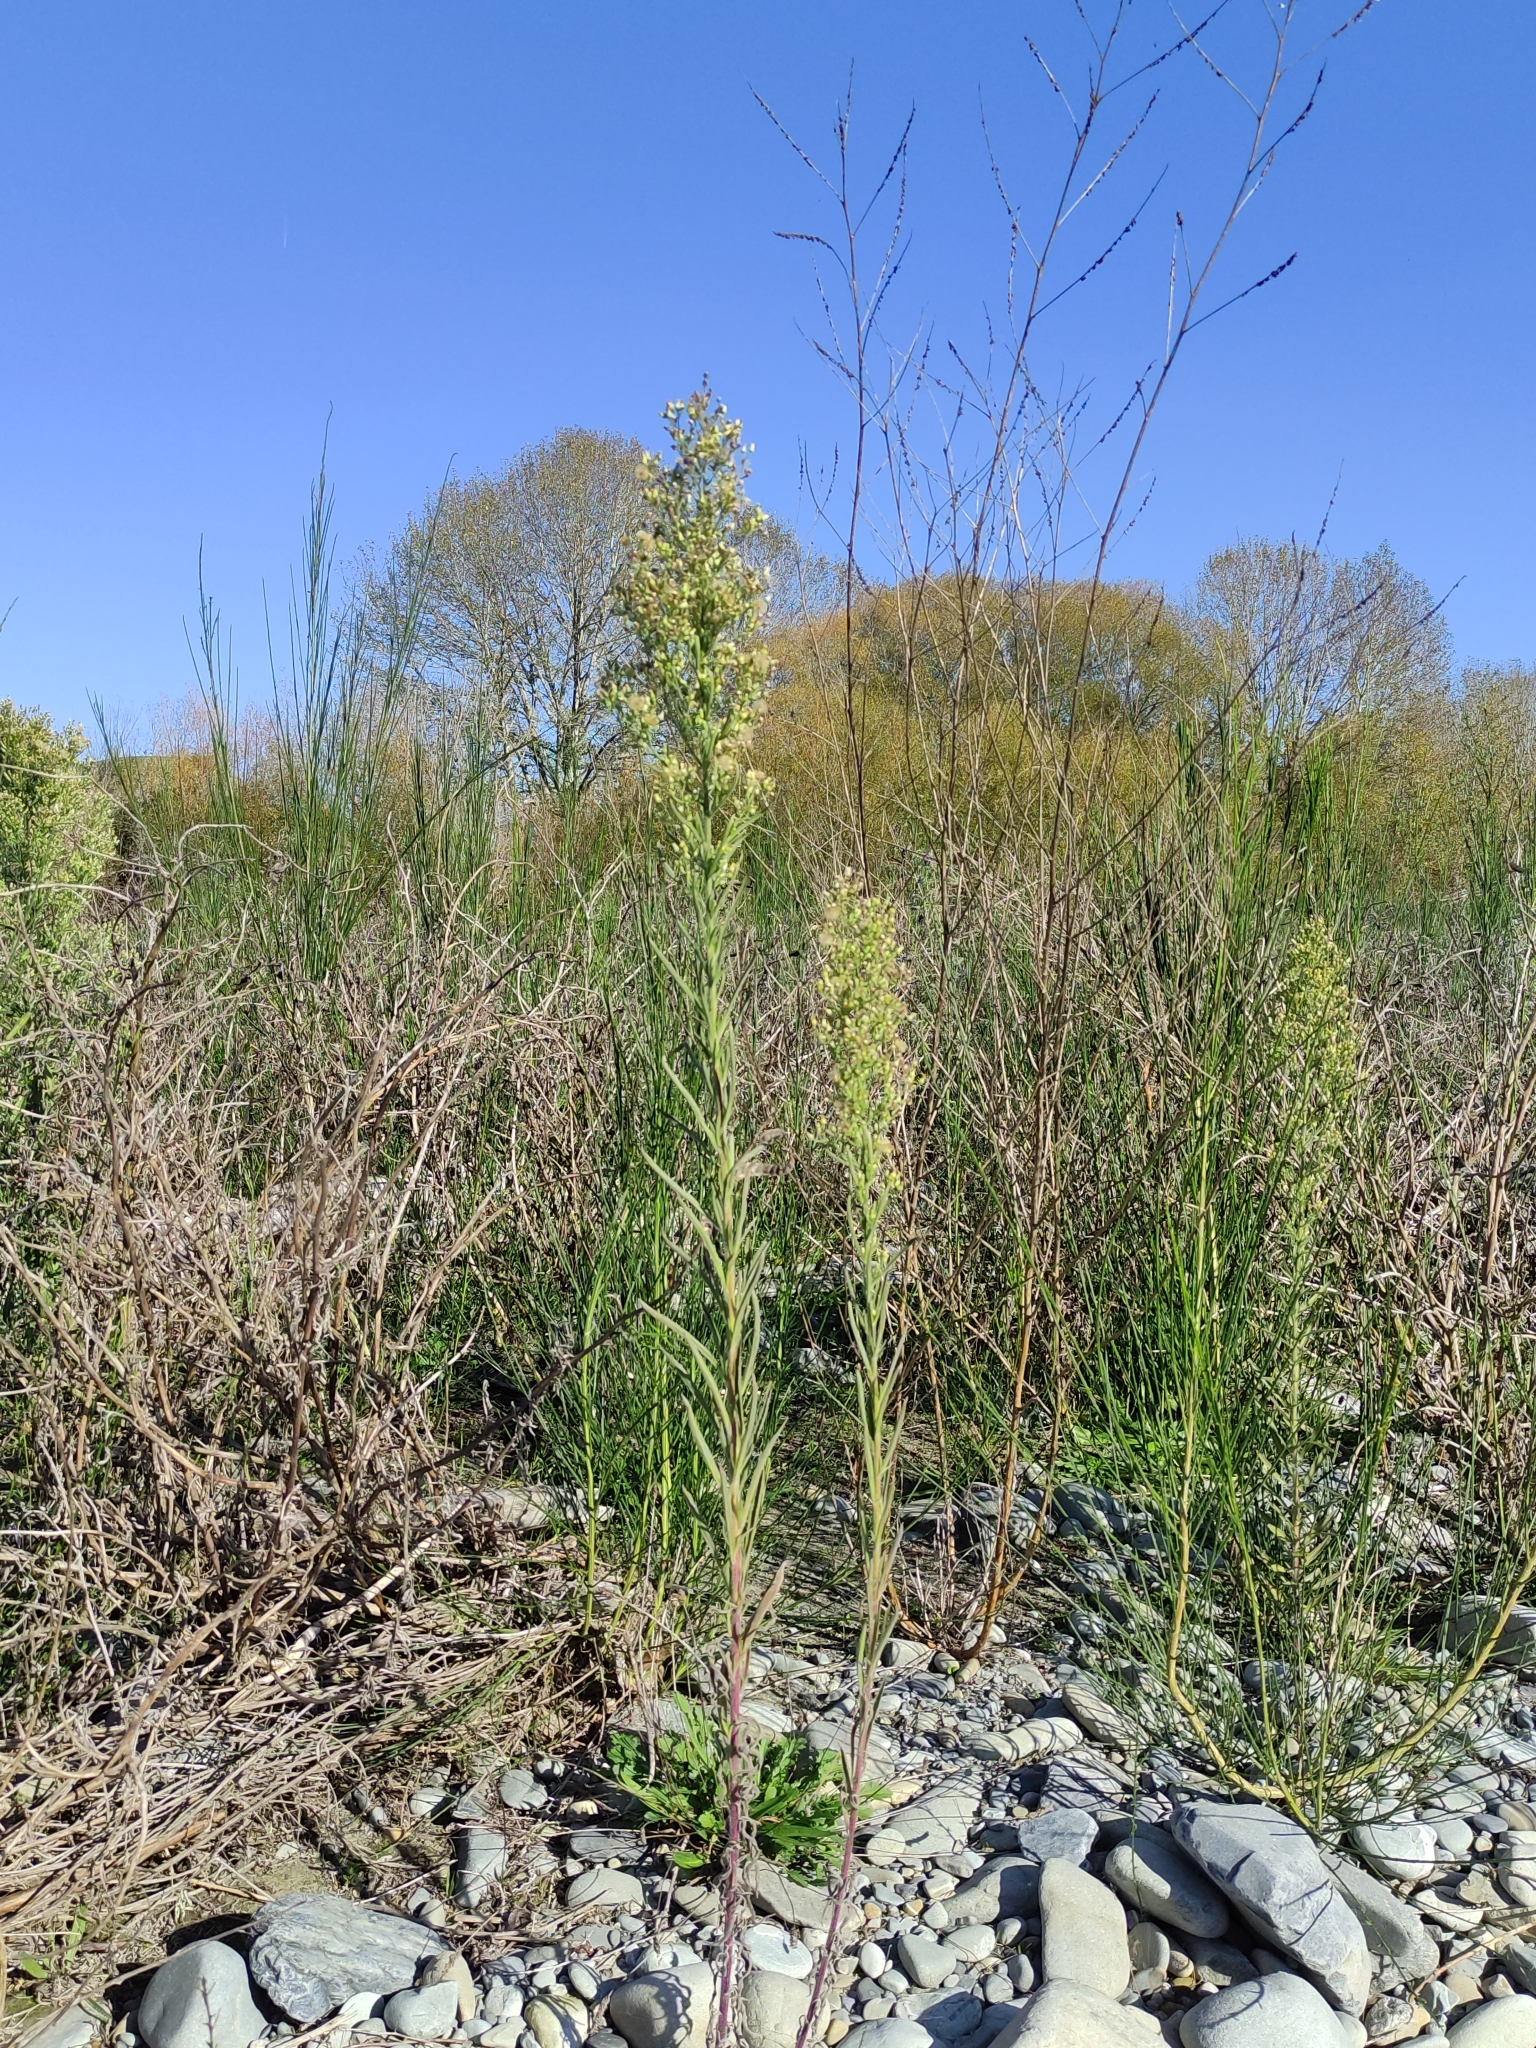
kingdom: Plantae
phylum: Tracheophyta
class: Magnoliopsida
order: Asterales
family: Asteraceae
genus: Erigeron
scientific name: Erigeron sumatrensis
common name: Daisy
